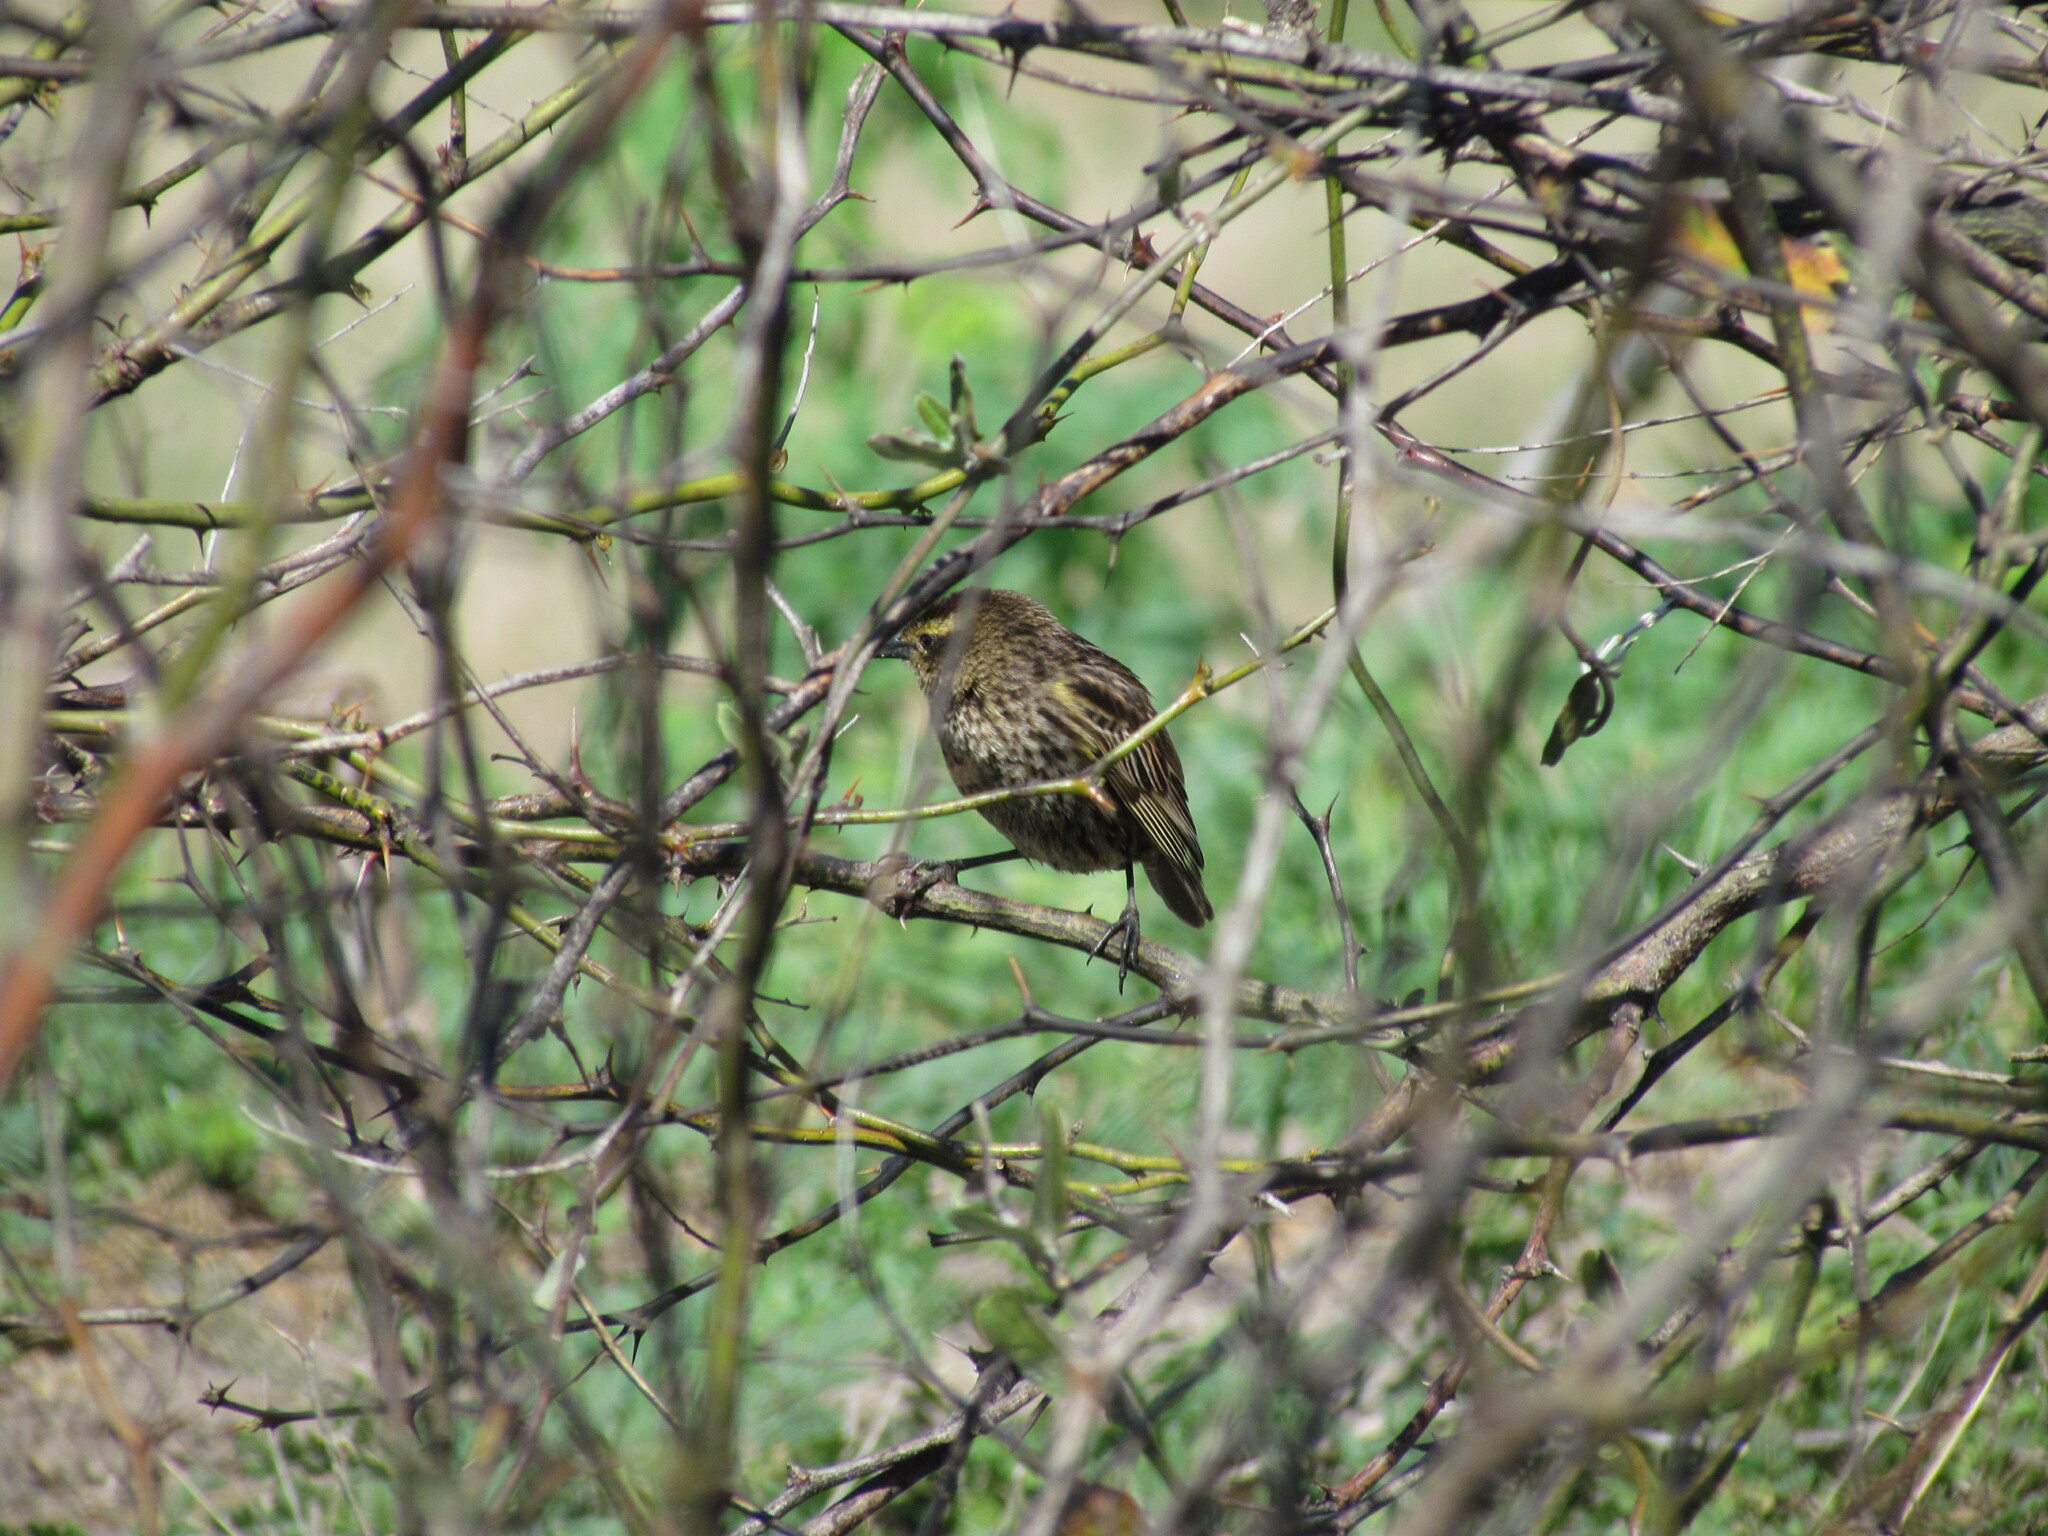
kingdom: Animalia
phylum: Chordata
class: Aves
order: Passeriformes
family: Icteridae
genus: Agelasticus
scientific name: Agelasticus thilius
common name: Yellow-winged blackbird
